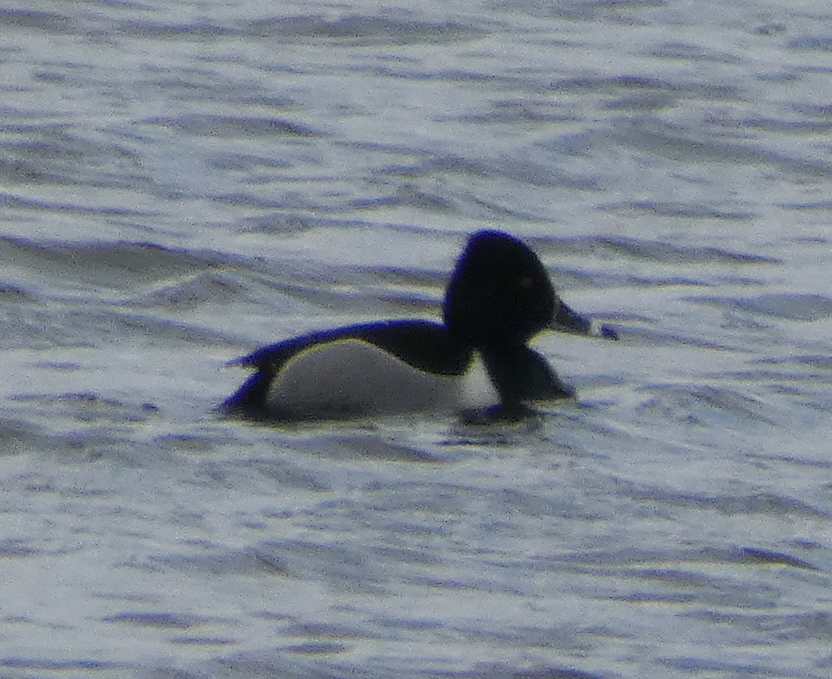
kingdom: Animalia
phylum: Chordata
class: Aves
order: Anseriformes
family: Anatidae
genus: Aythya
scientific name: Aythya collaris
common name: Ring-necked duck
